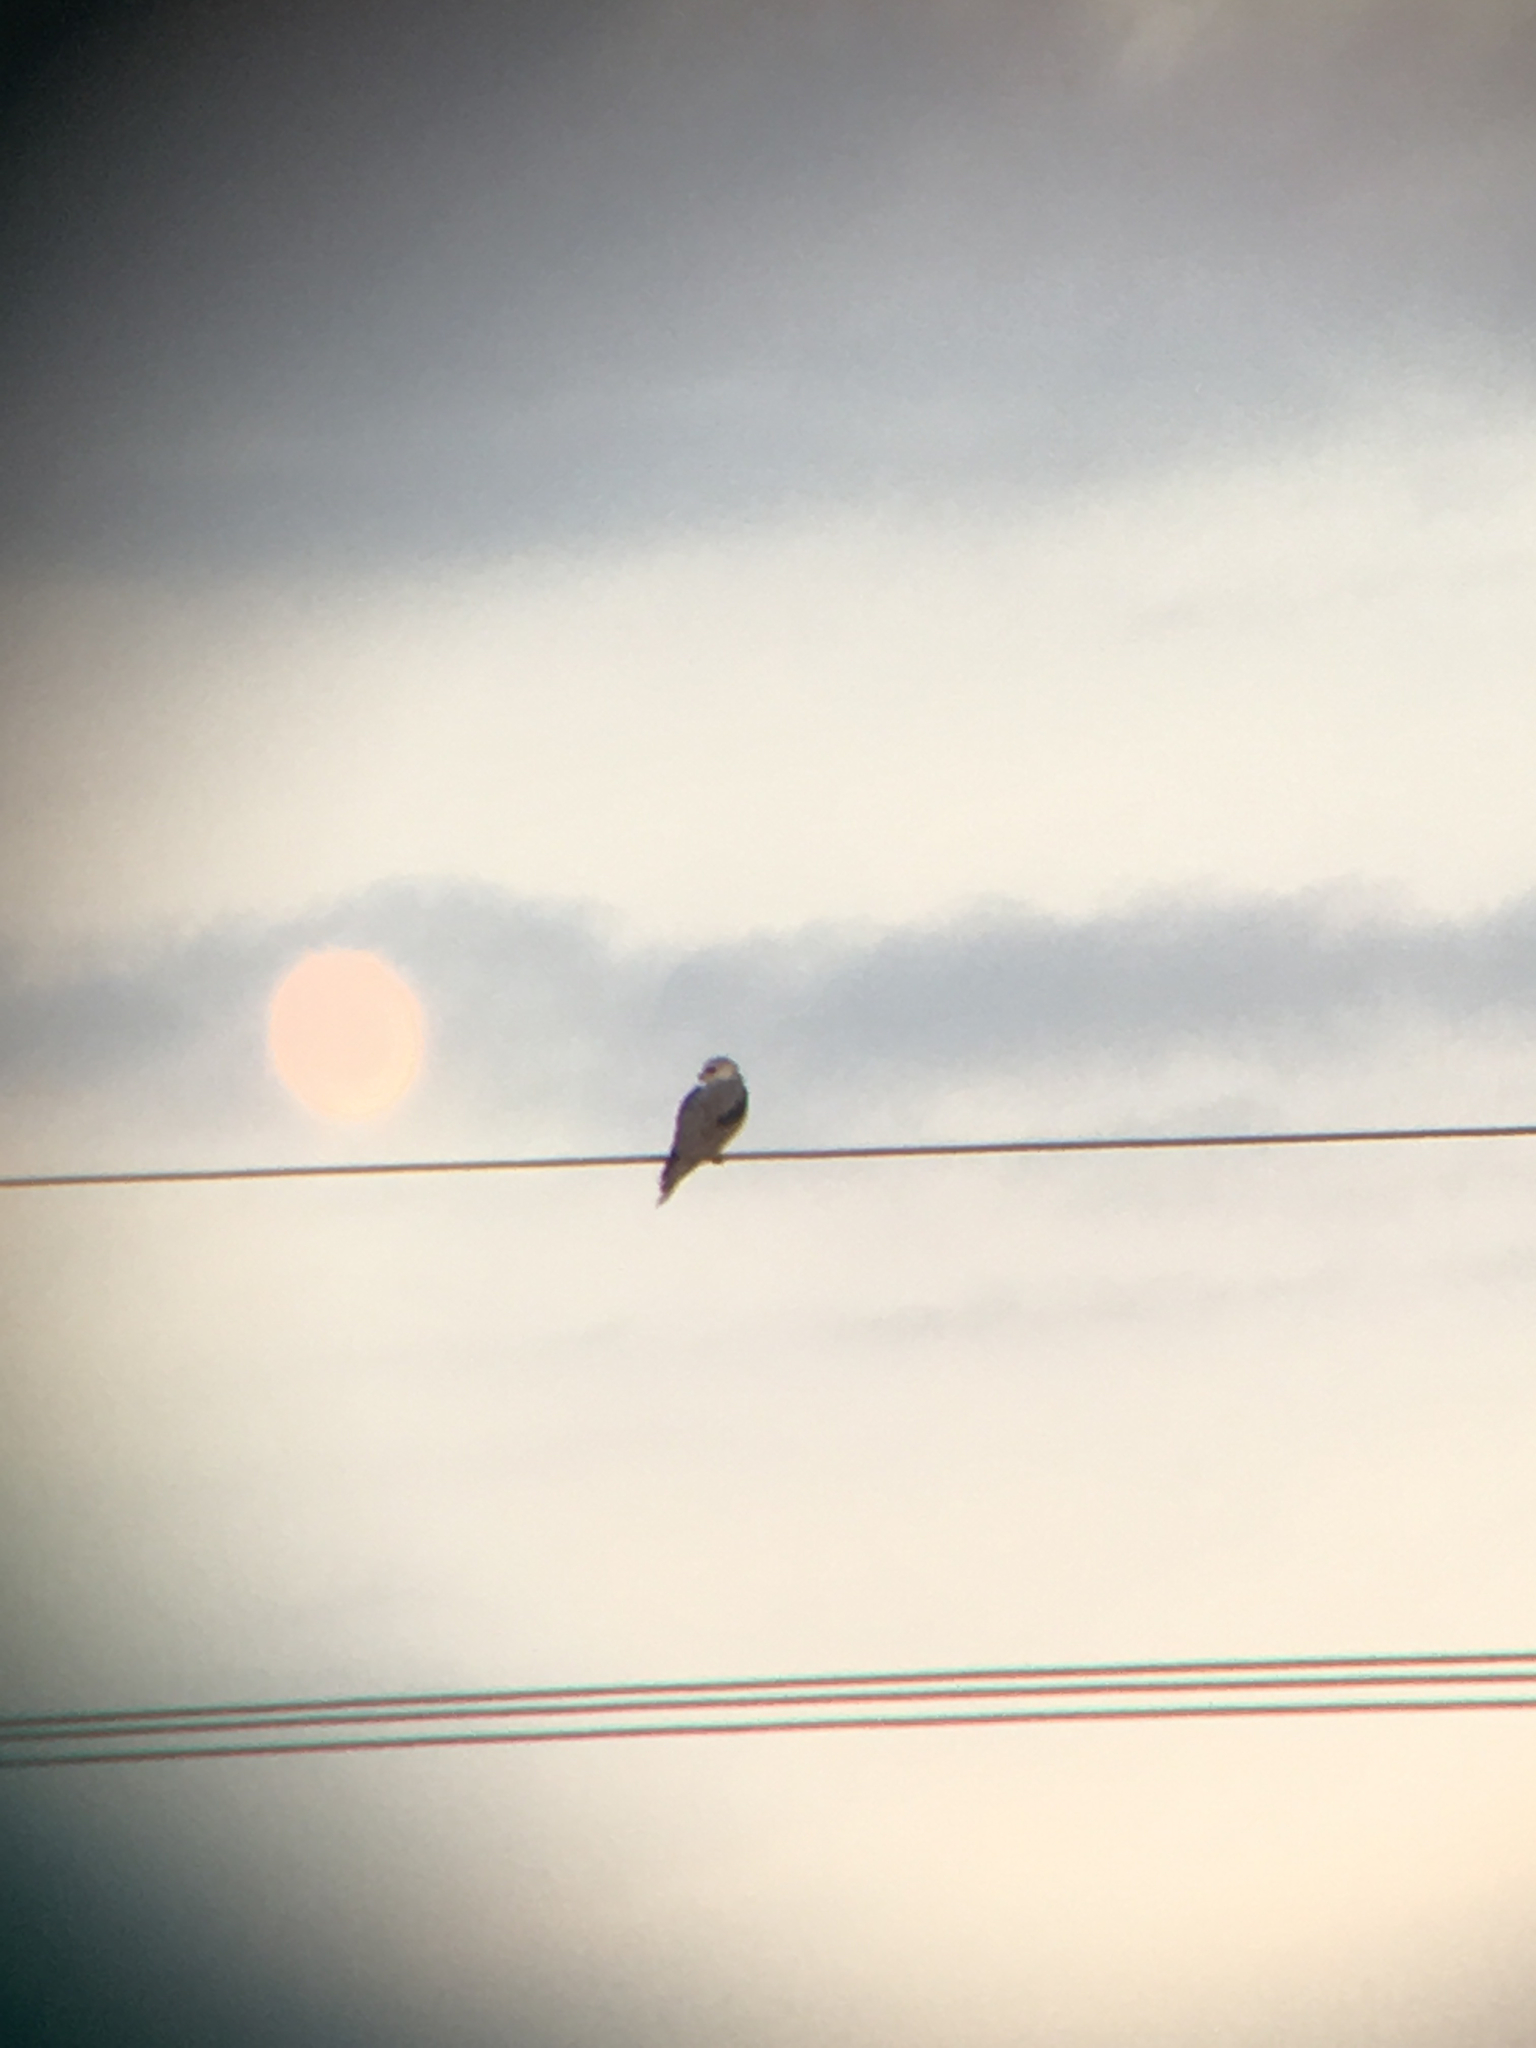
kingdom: Animalia
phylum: Chordata
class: Aves
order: Accipitriformes
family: Accipitridae
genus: Elanus
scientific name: Elanus leucurus
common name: White-tailed kite
